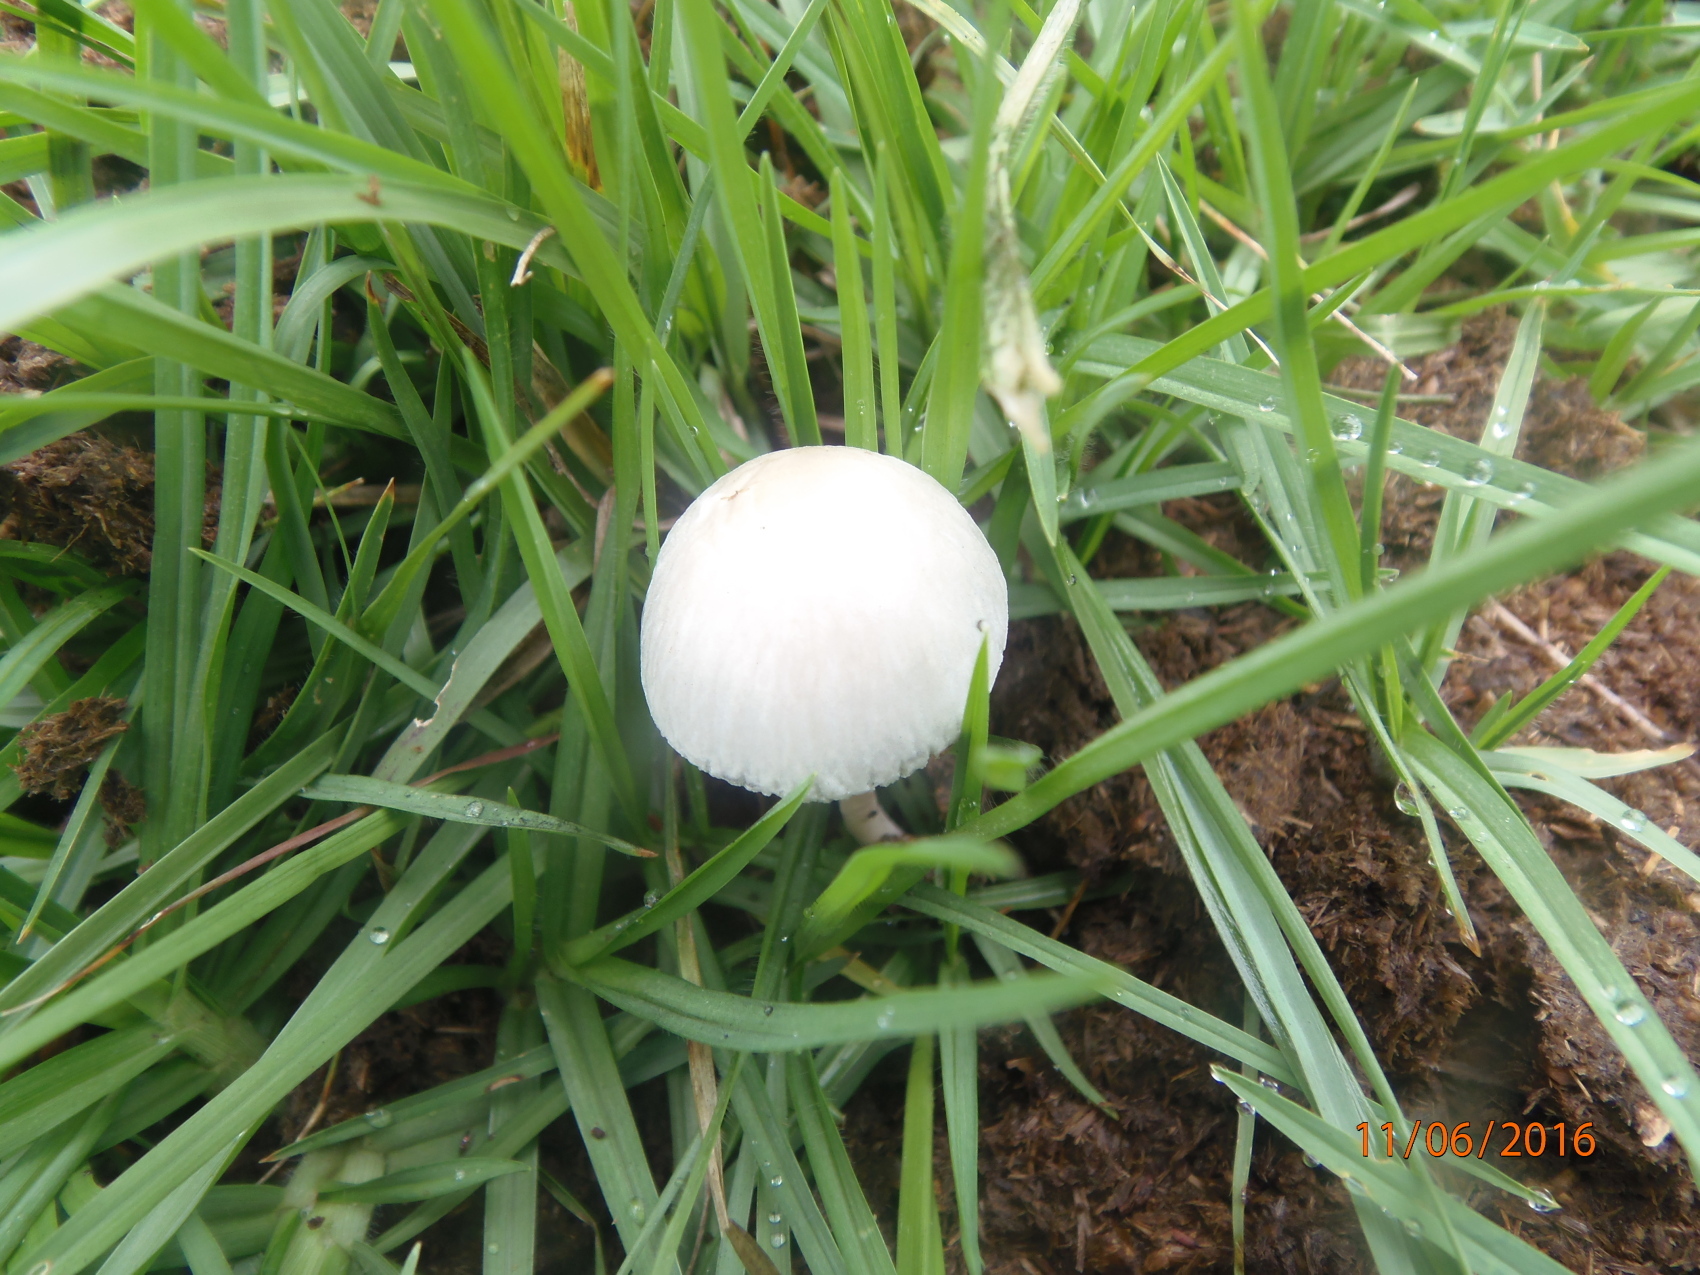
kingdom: Fungi
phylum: Basidiomycota
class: Agaricomycetes
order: Agaricales
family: Bolbitiaceae
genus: Panaeolus
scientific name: Panaeolus antillarum
